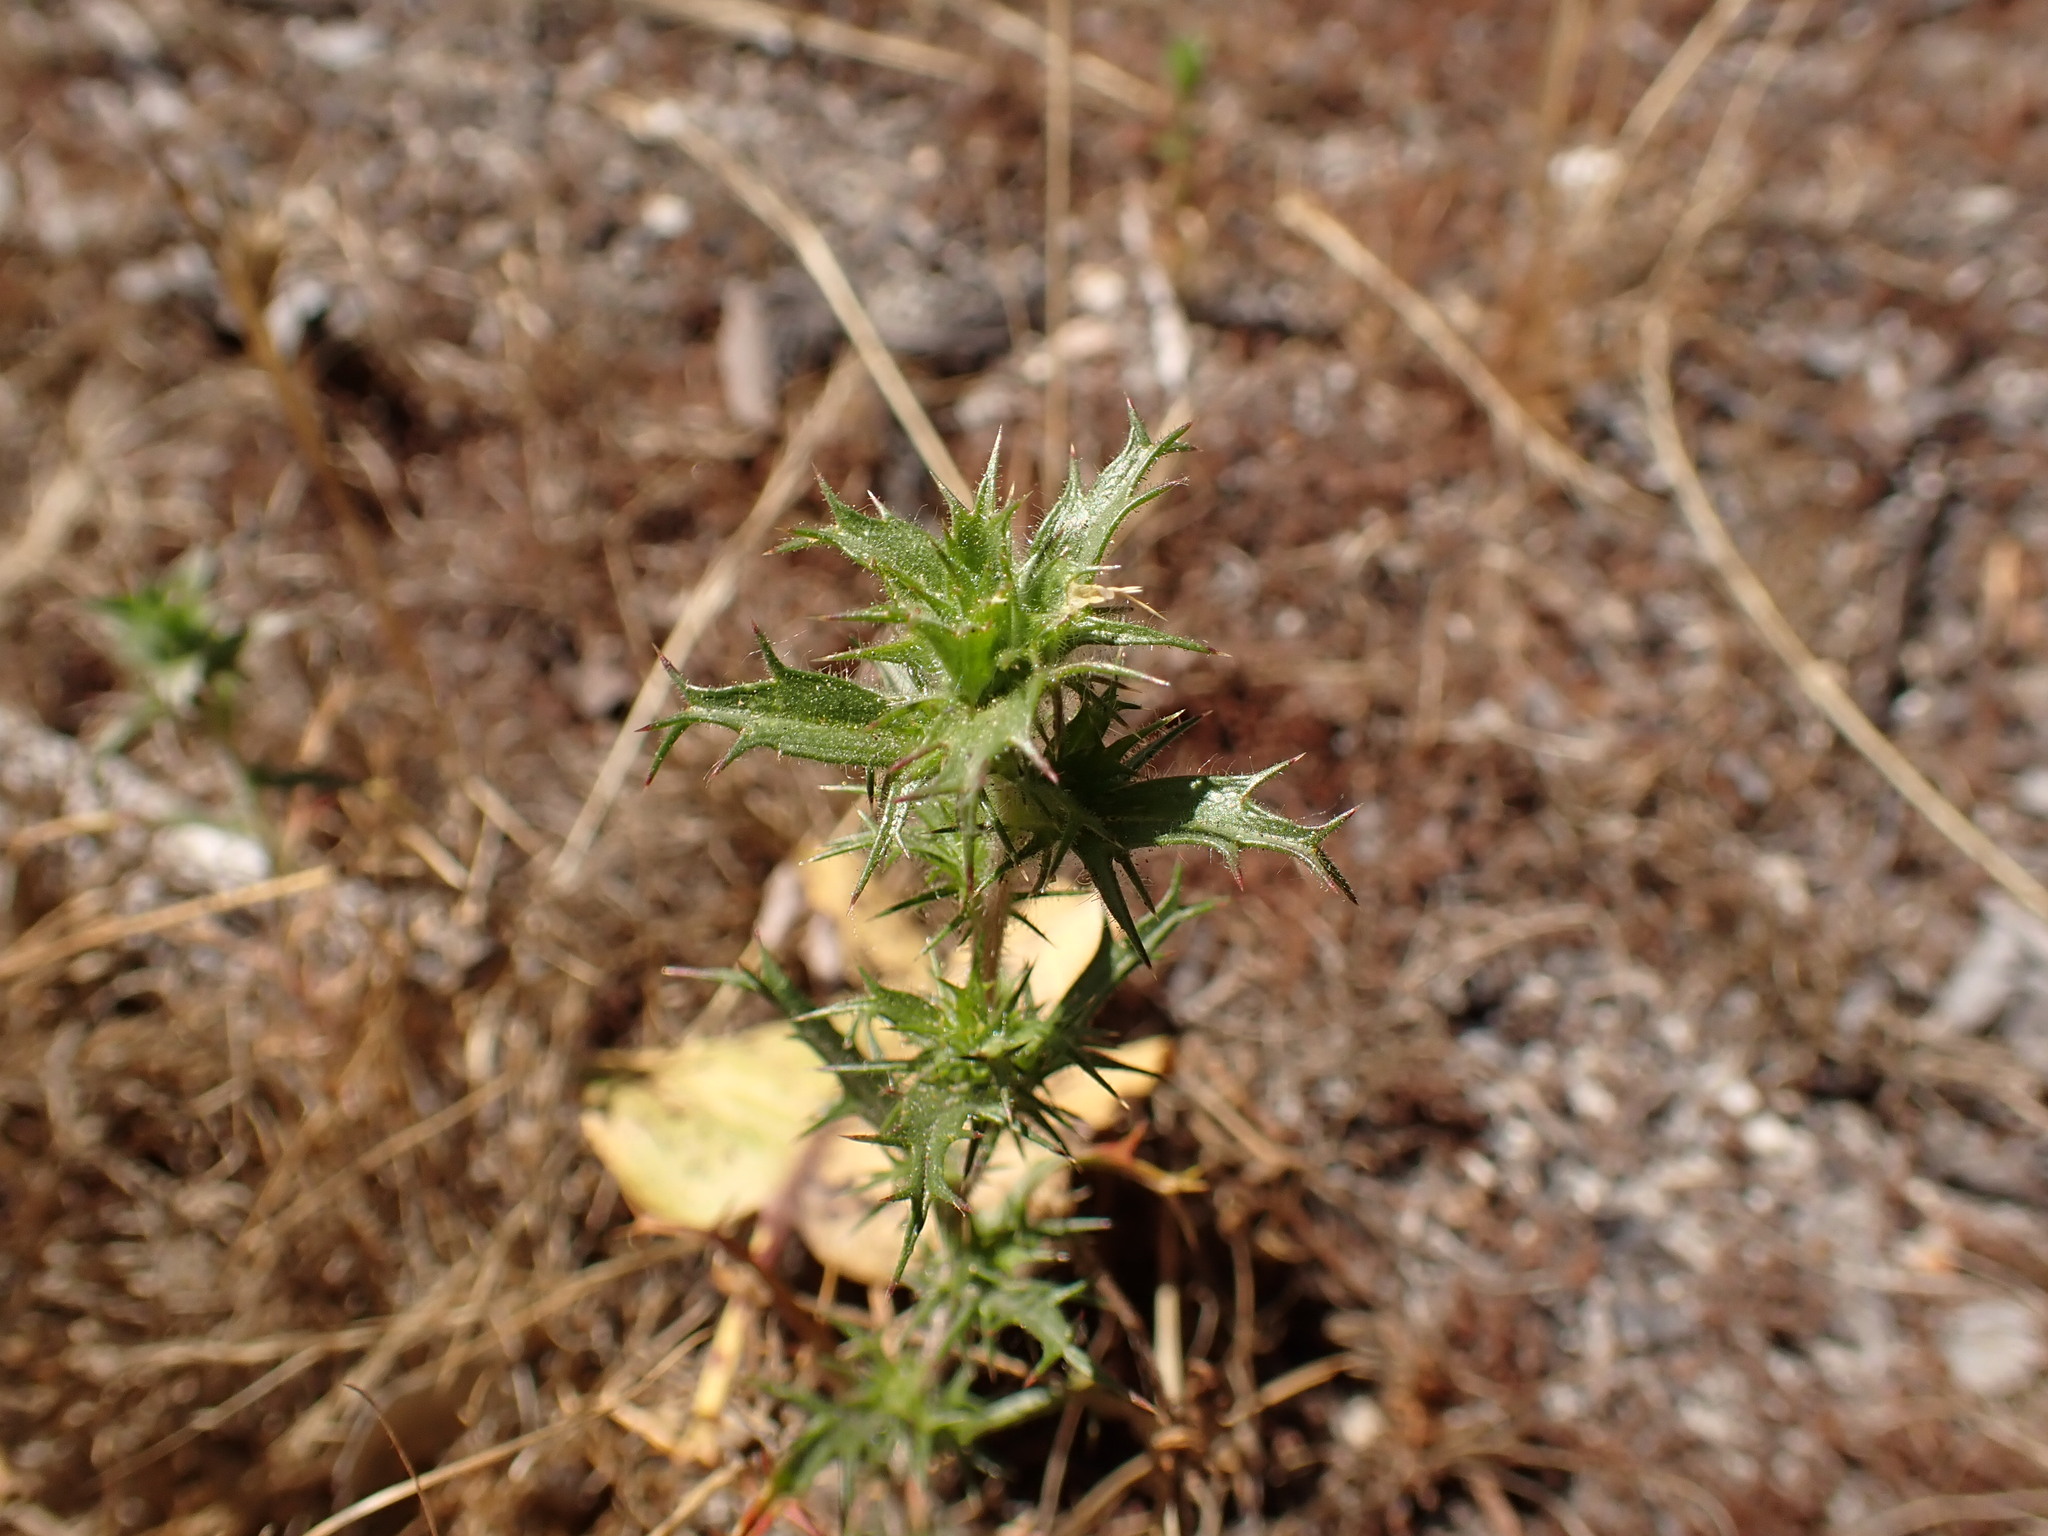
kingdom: Plantae
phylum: Tracheophyta
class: Magnoliopsida
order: Ericales
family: Polemoniaceae
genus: Navarretia
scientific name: Navarretia atractyloides
